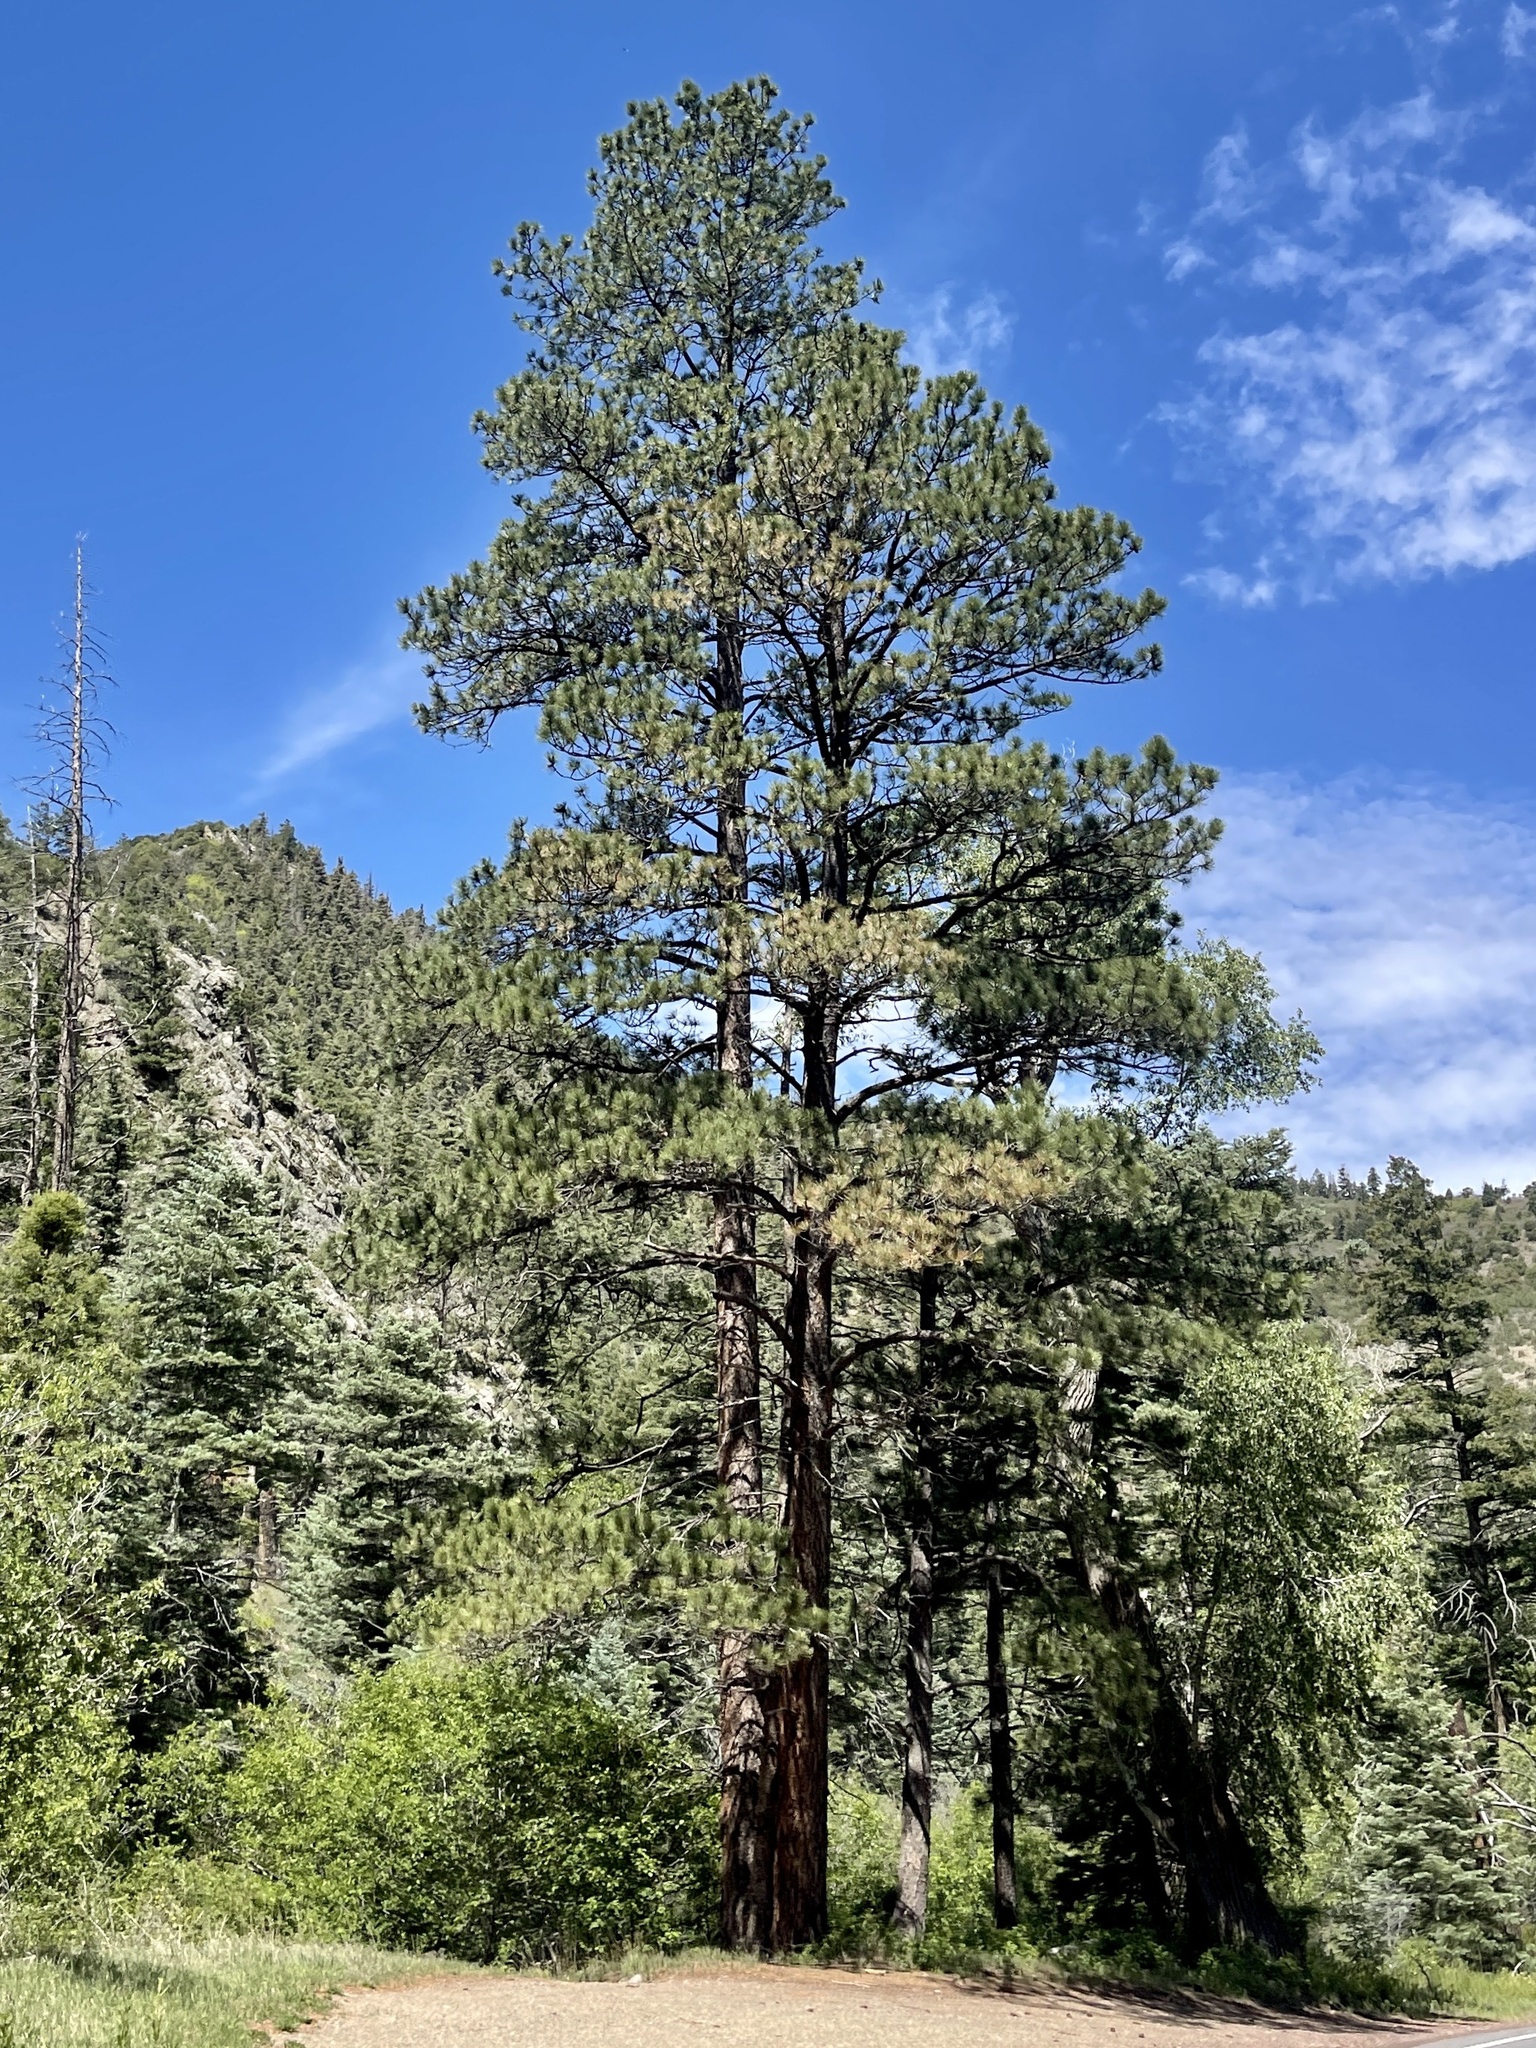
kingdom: Plantae
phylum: Tracheophyta
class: Pinopsida
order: Pinales
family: Pinaceae
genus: Pinus
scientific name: Pinus ponderosa
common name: Western yellow-pine
